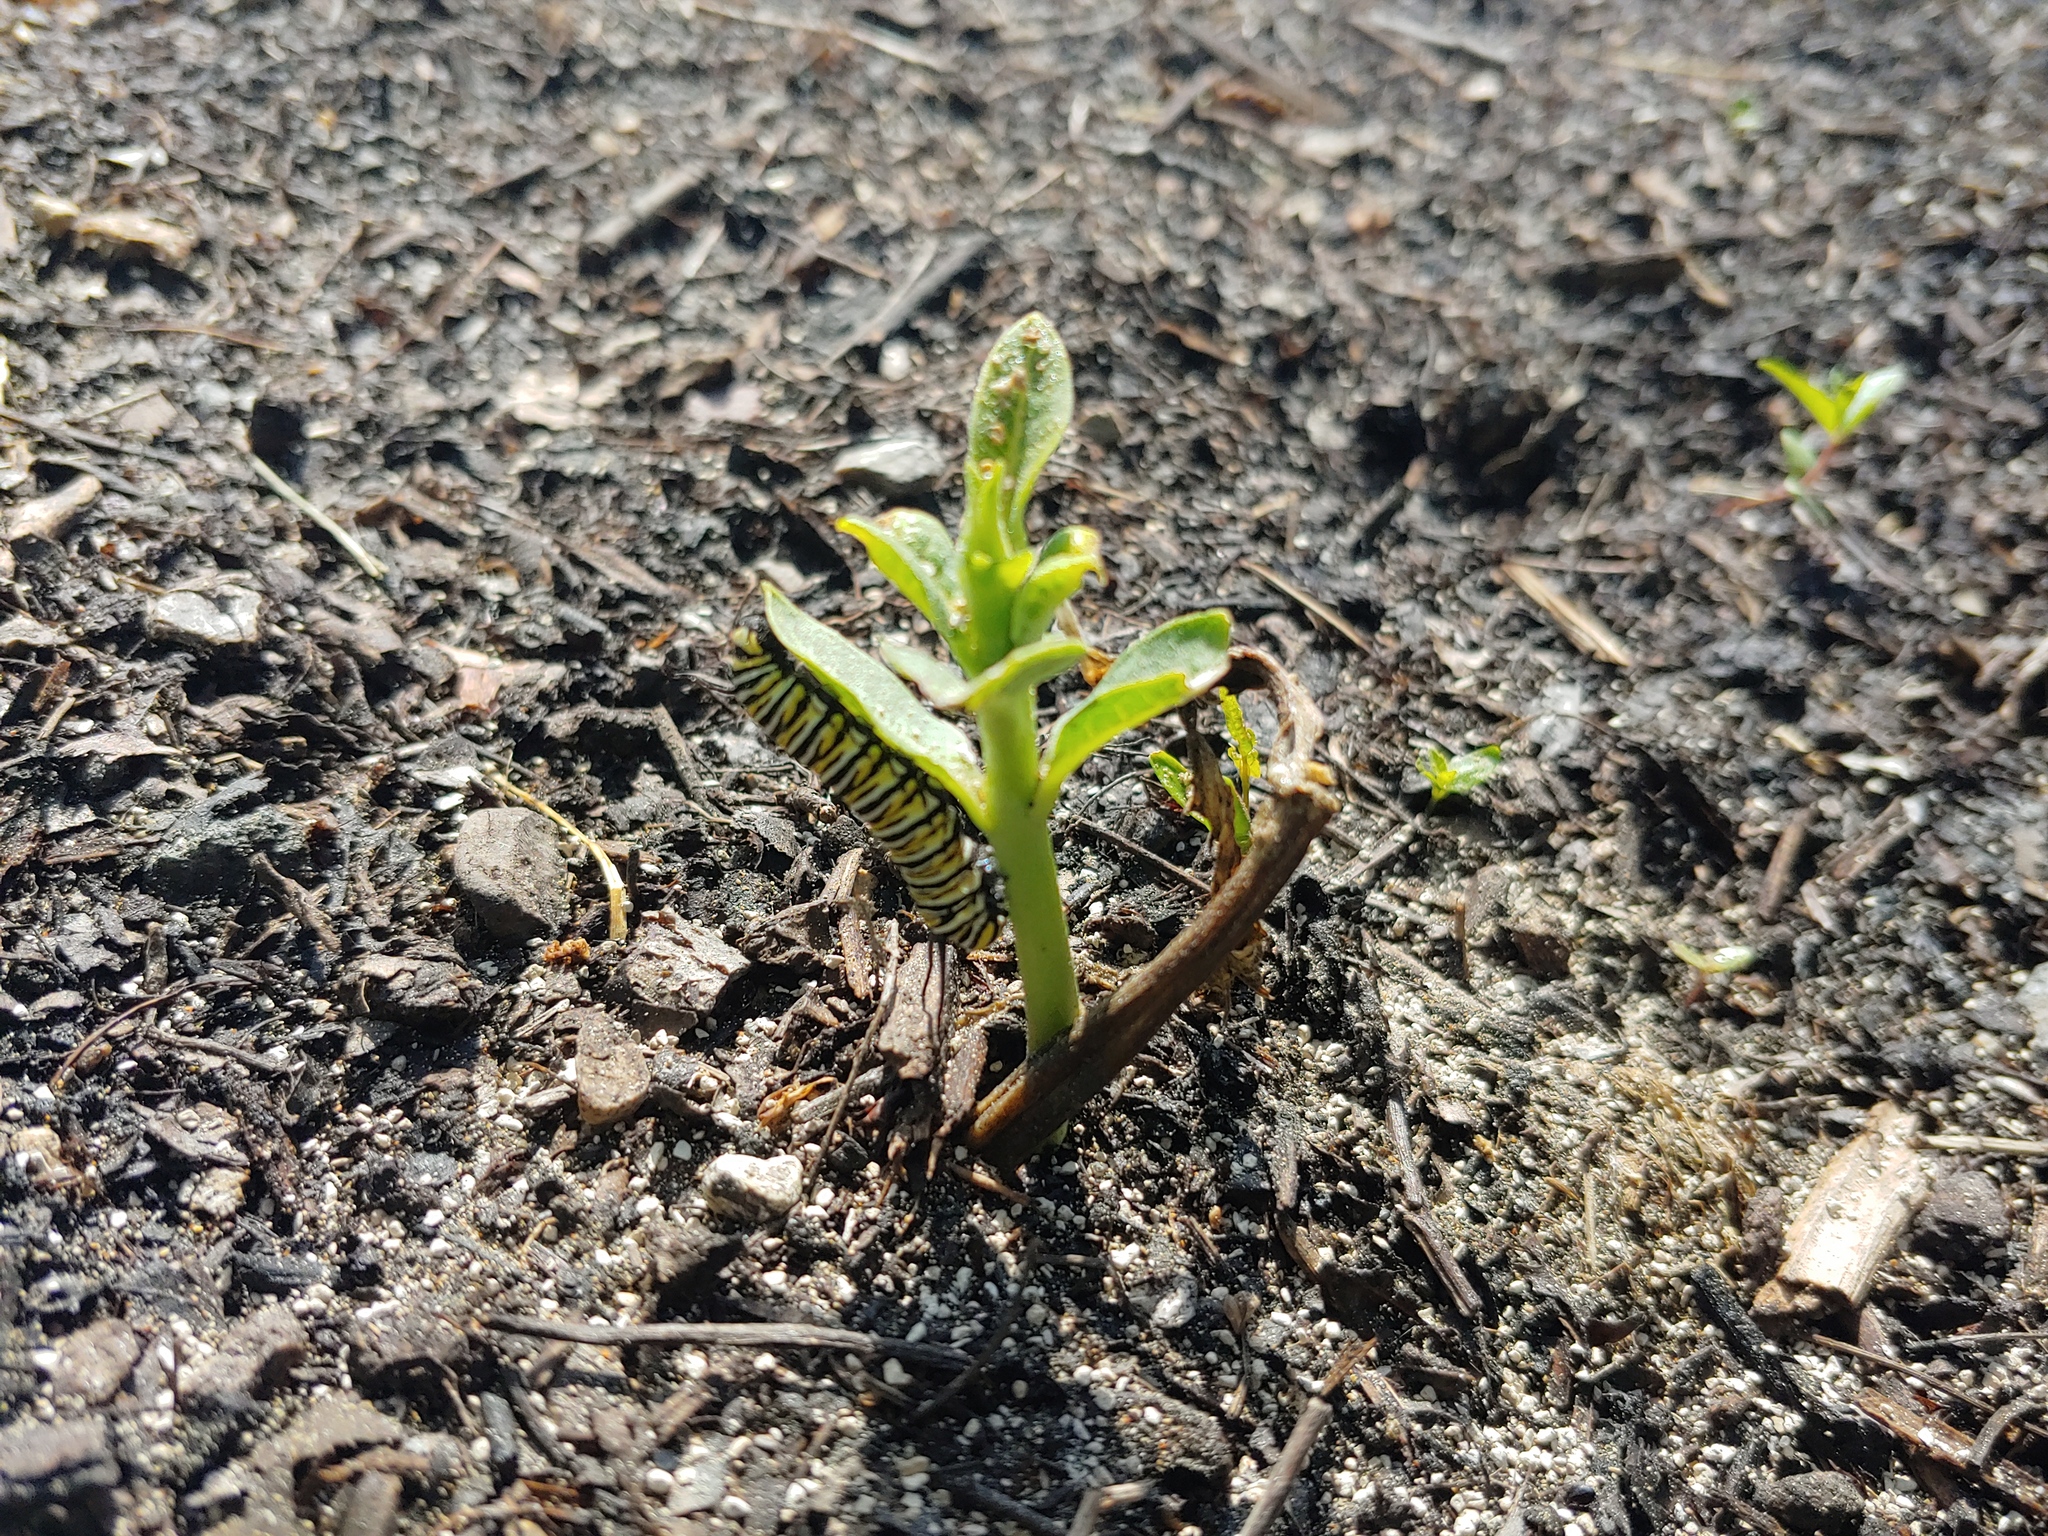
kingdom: Animalia
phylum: Arthropoda
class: Insecta
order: Lepidoptera
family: Nymphalidae
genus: Danaus
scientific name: Danaus plexippus
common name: Monarch
